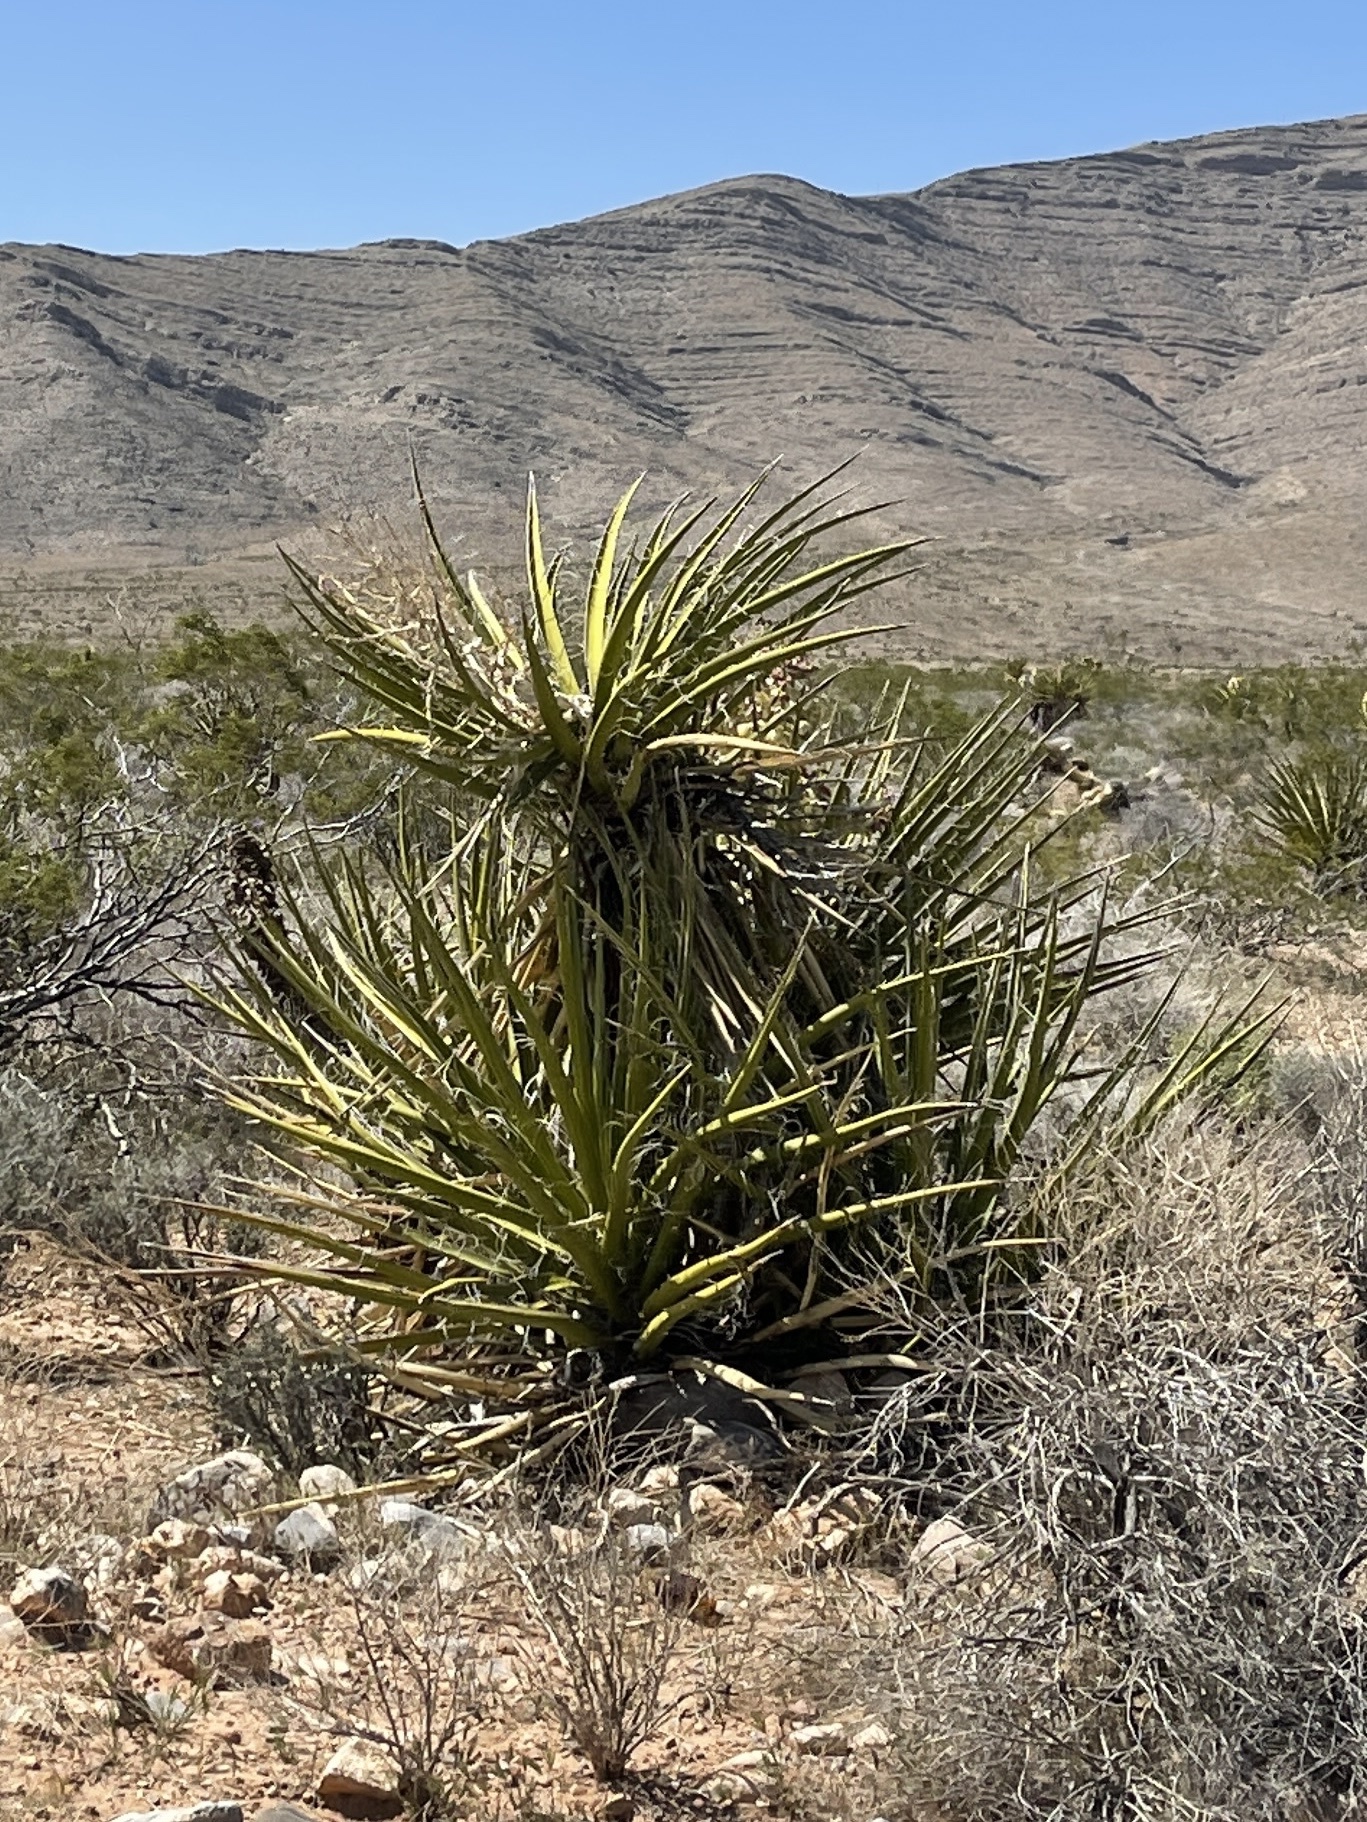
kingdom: Plantae
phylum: Tracheophyta
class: Liliopsida
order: Asparagales
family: Asparagaceae
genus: Yucca
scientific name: Yucca schidigera
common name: Mojave yucca
